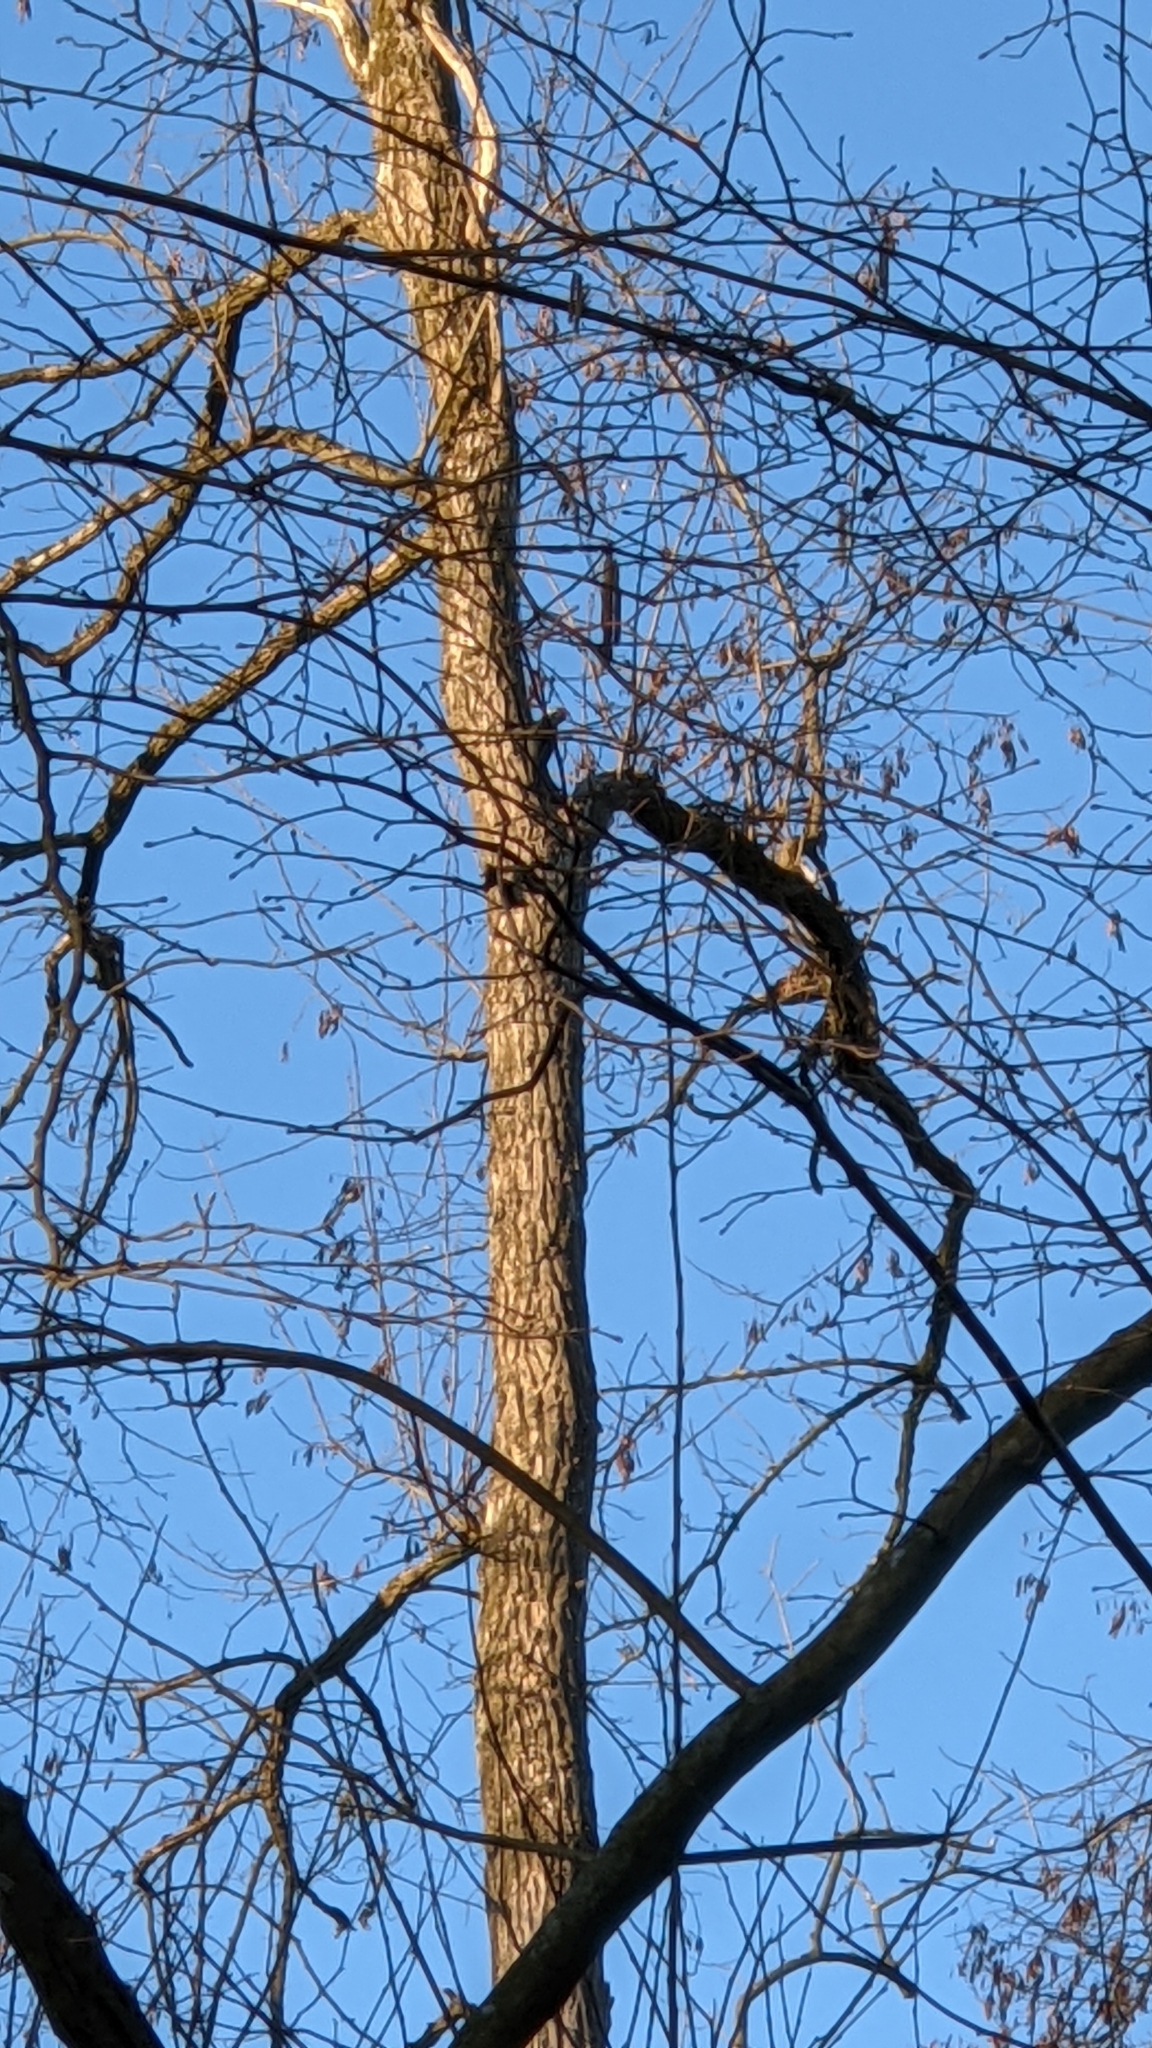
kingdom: Animalia
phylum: Chordata
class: Aves
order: Piciformes
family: Picidae
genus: Dryocopus
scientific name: Dryocopus martius
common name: Black woodpecker
